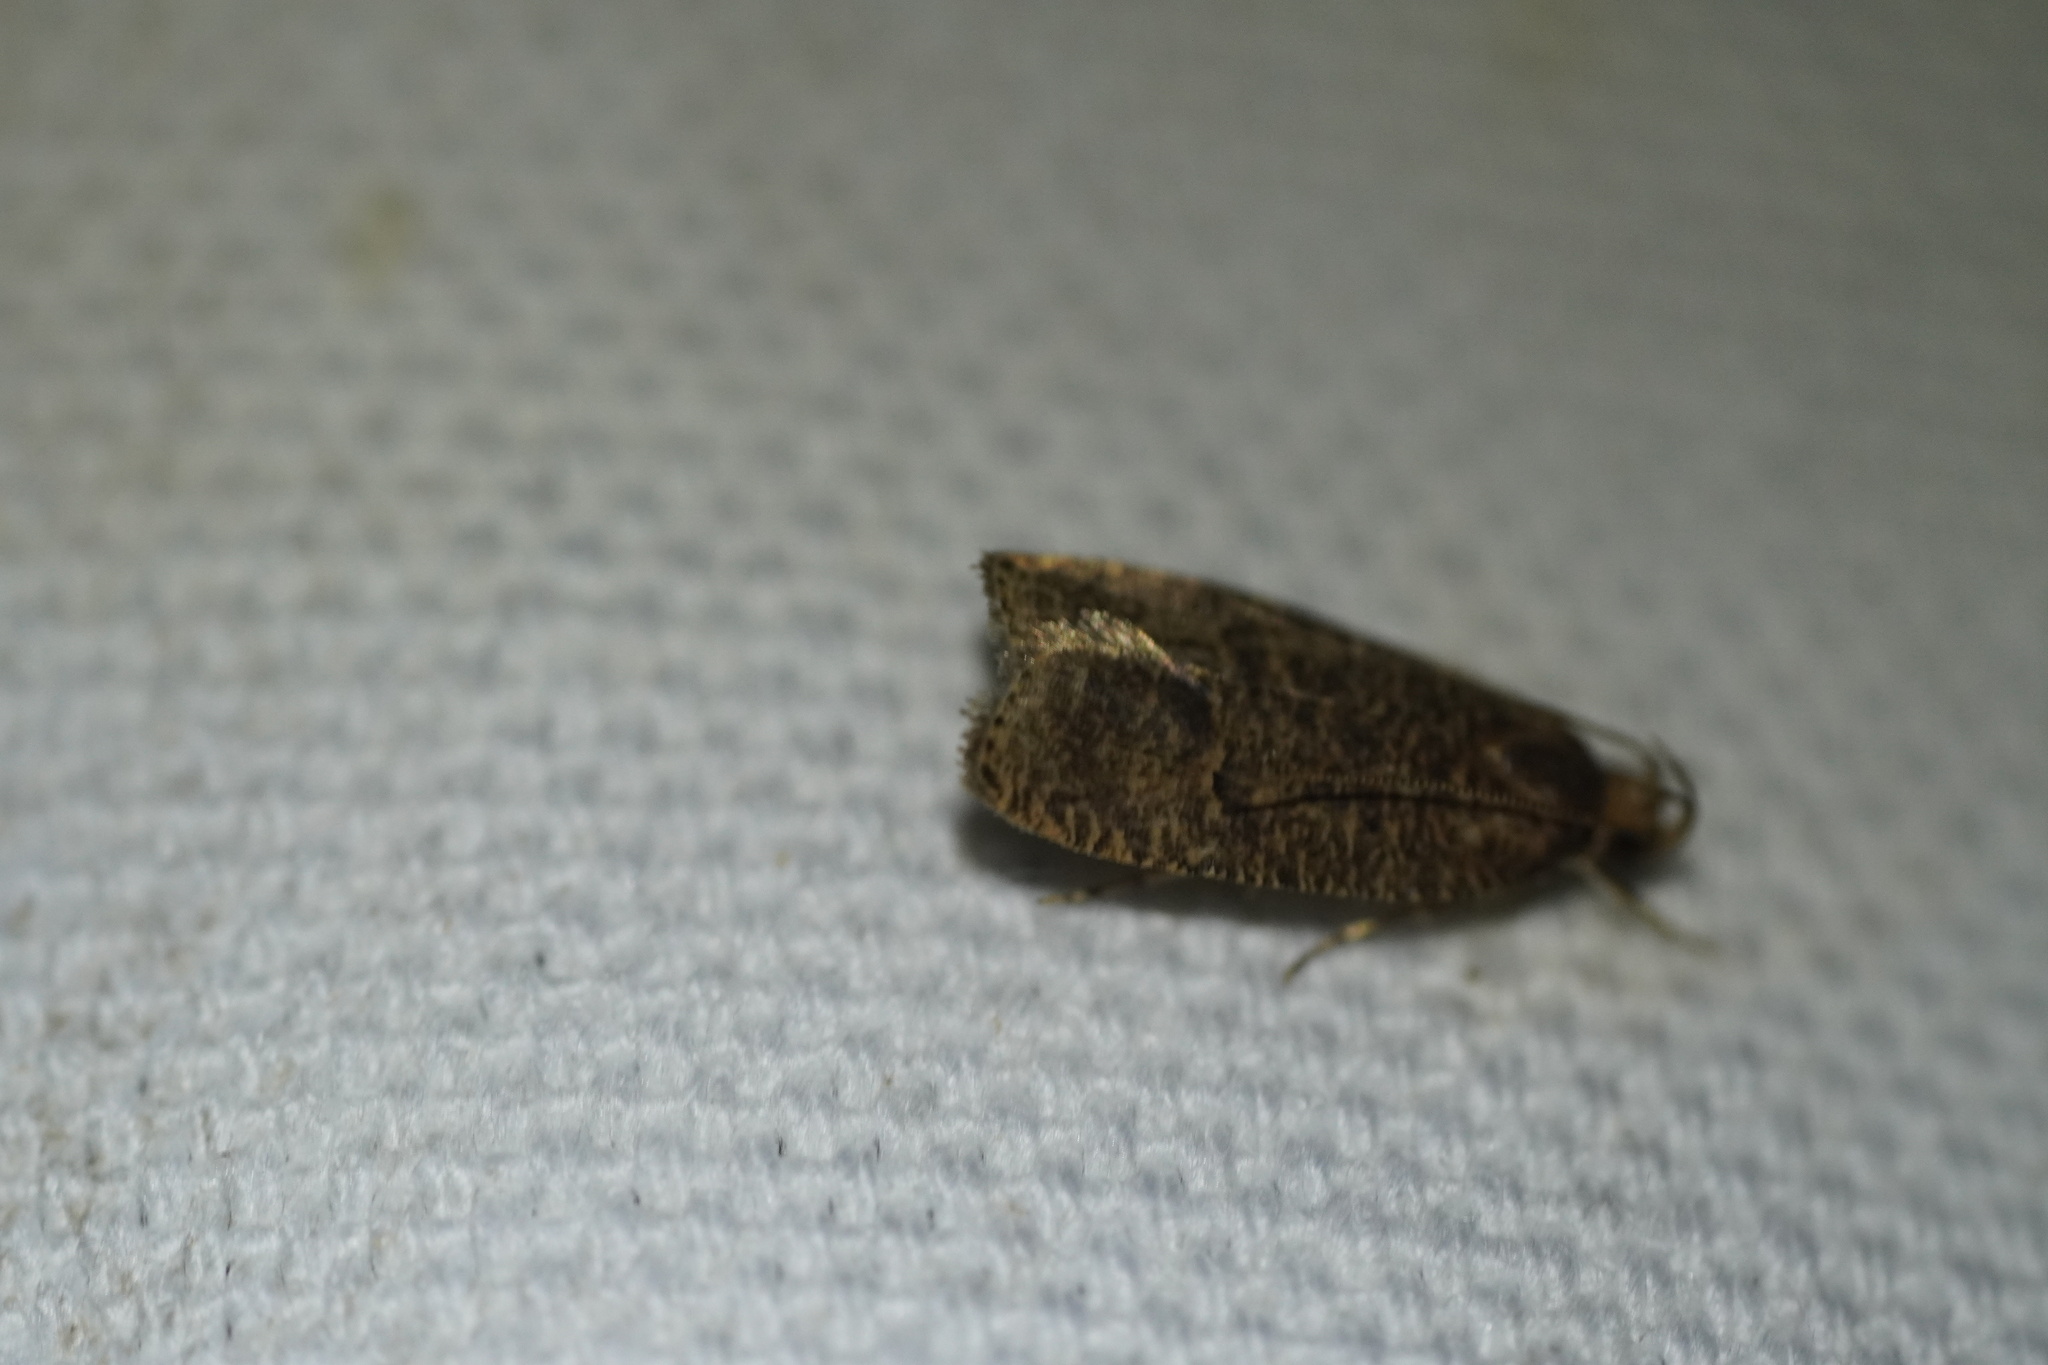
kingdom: Animalia
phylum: Arthropoda
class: Insecta
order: Lepidoptera
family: Depressariidae
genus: Psilocorsis
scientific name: Psilocorsis reflexella
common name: Dotted leaftier moth
